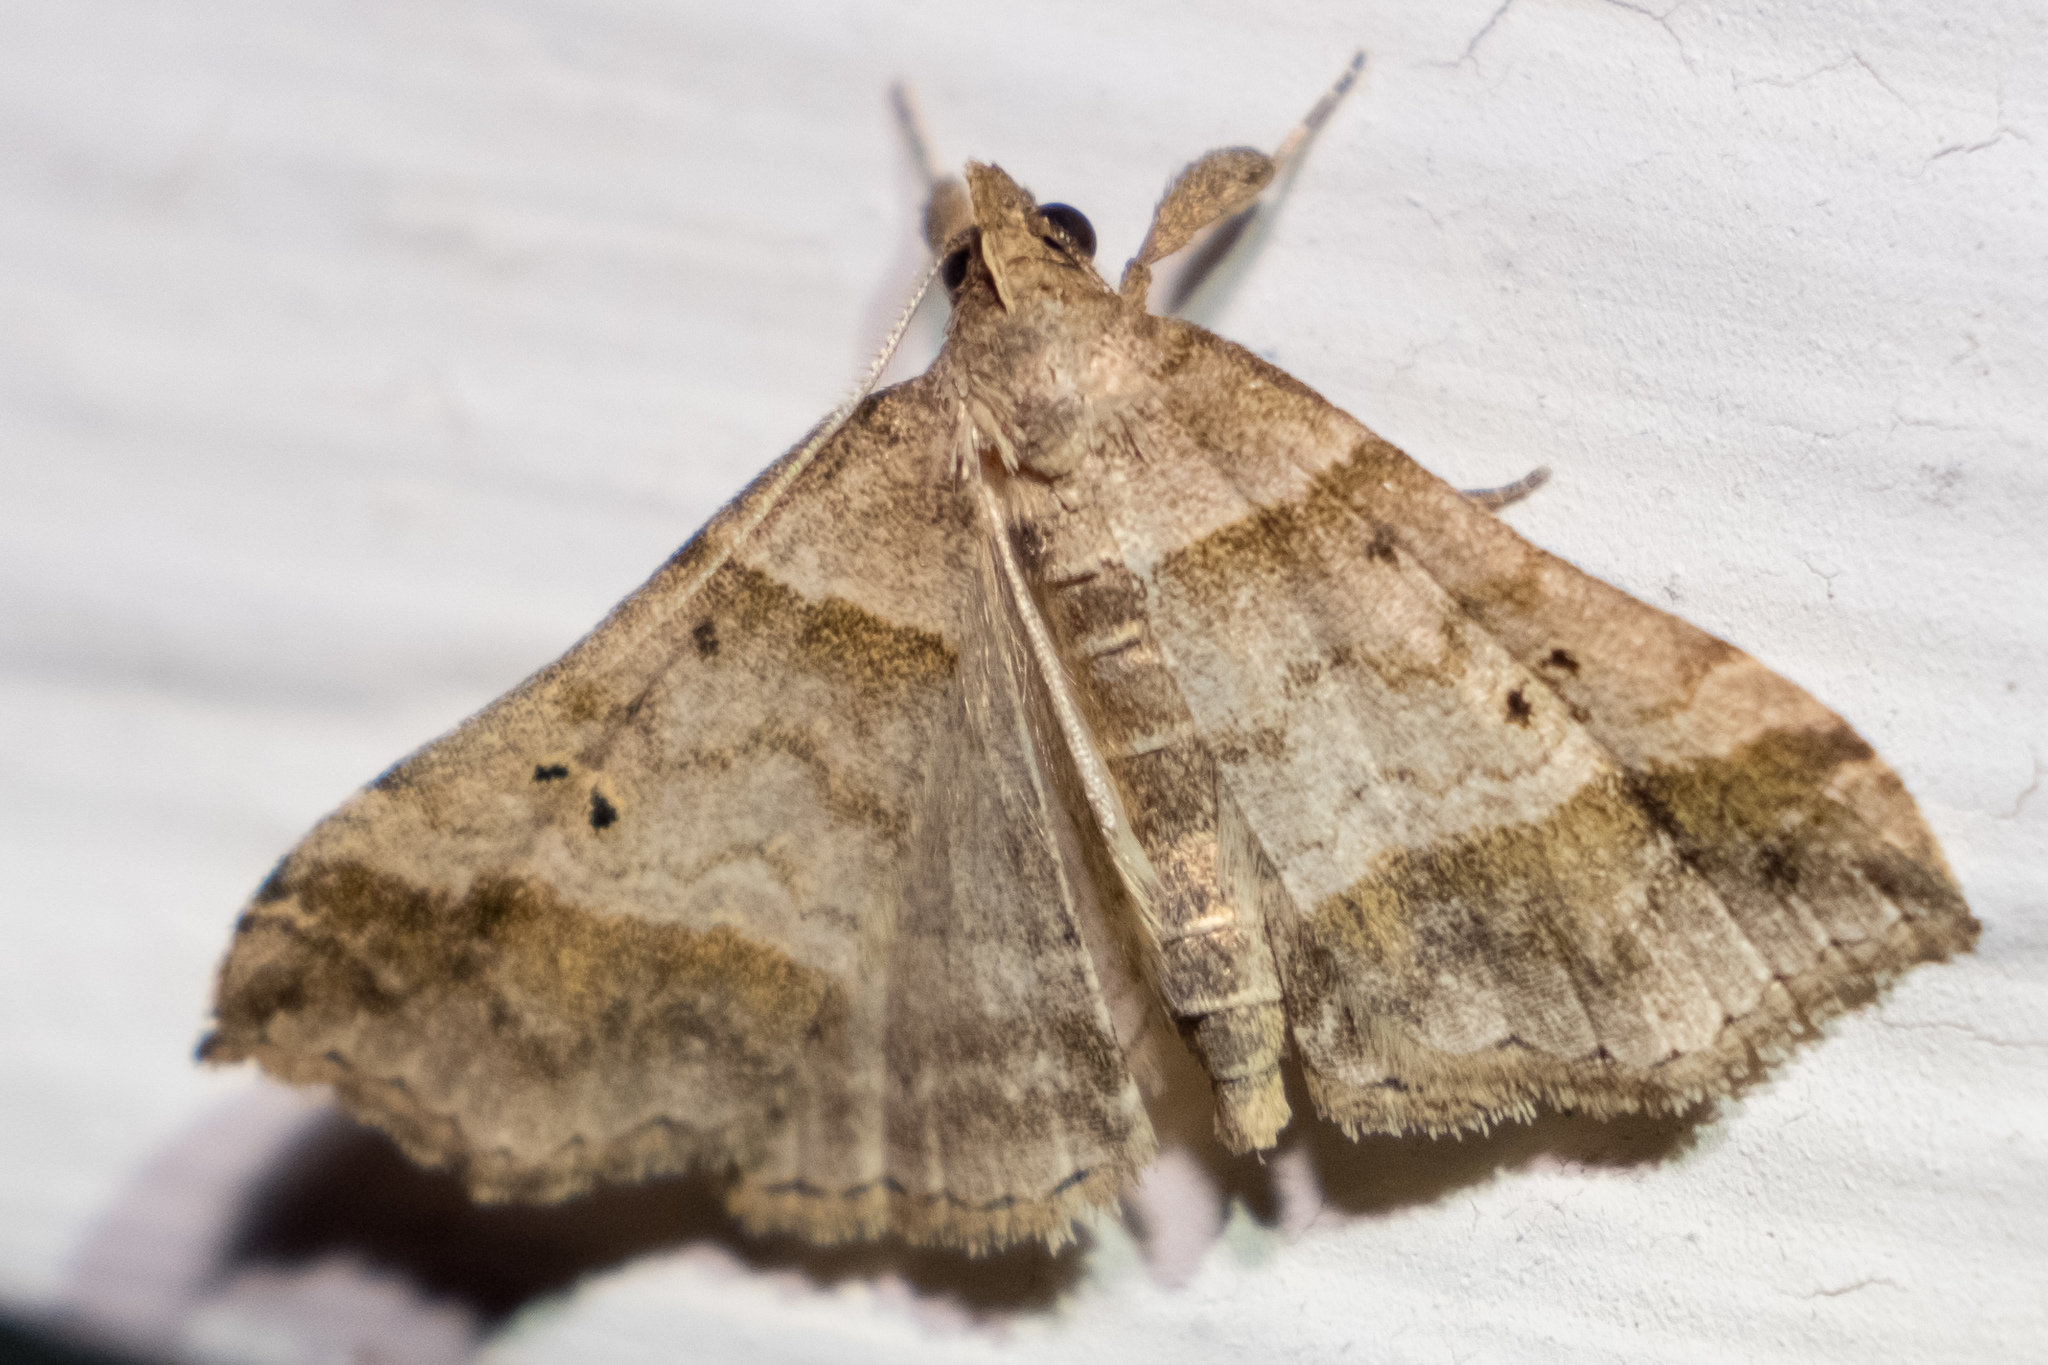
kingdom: Animalia
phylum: Arthropoda
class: Insecta
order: Lepidoptera
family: Erebidae
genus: Phaeolita
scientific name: Phaeolita pyramusalis
